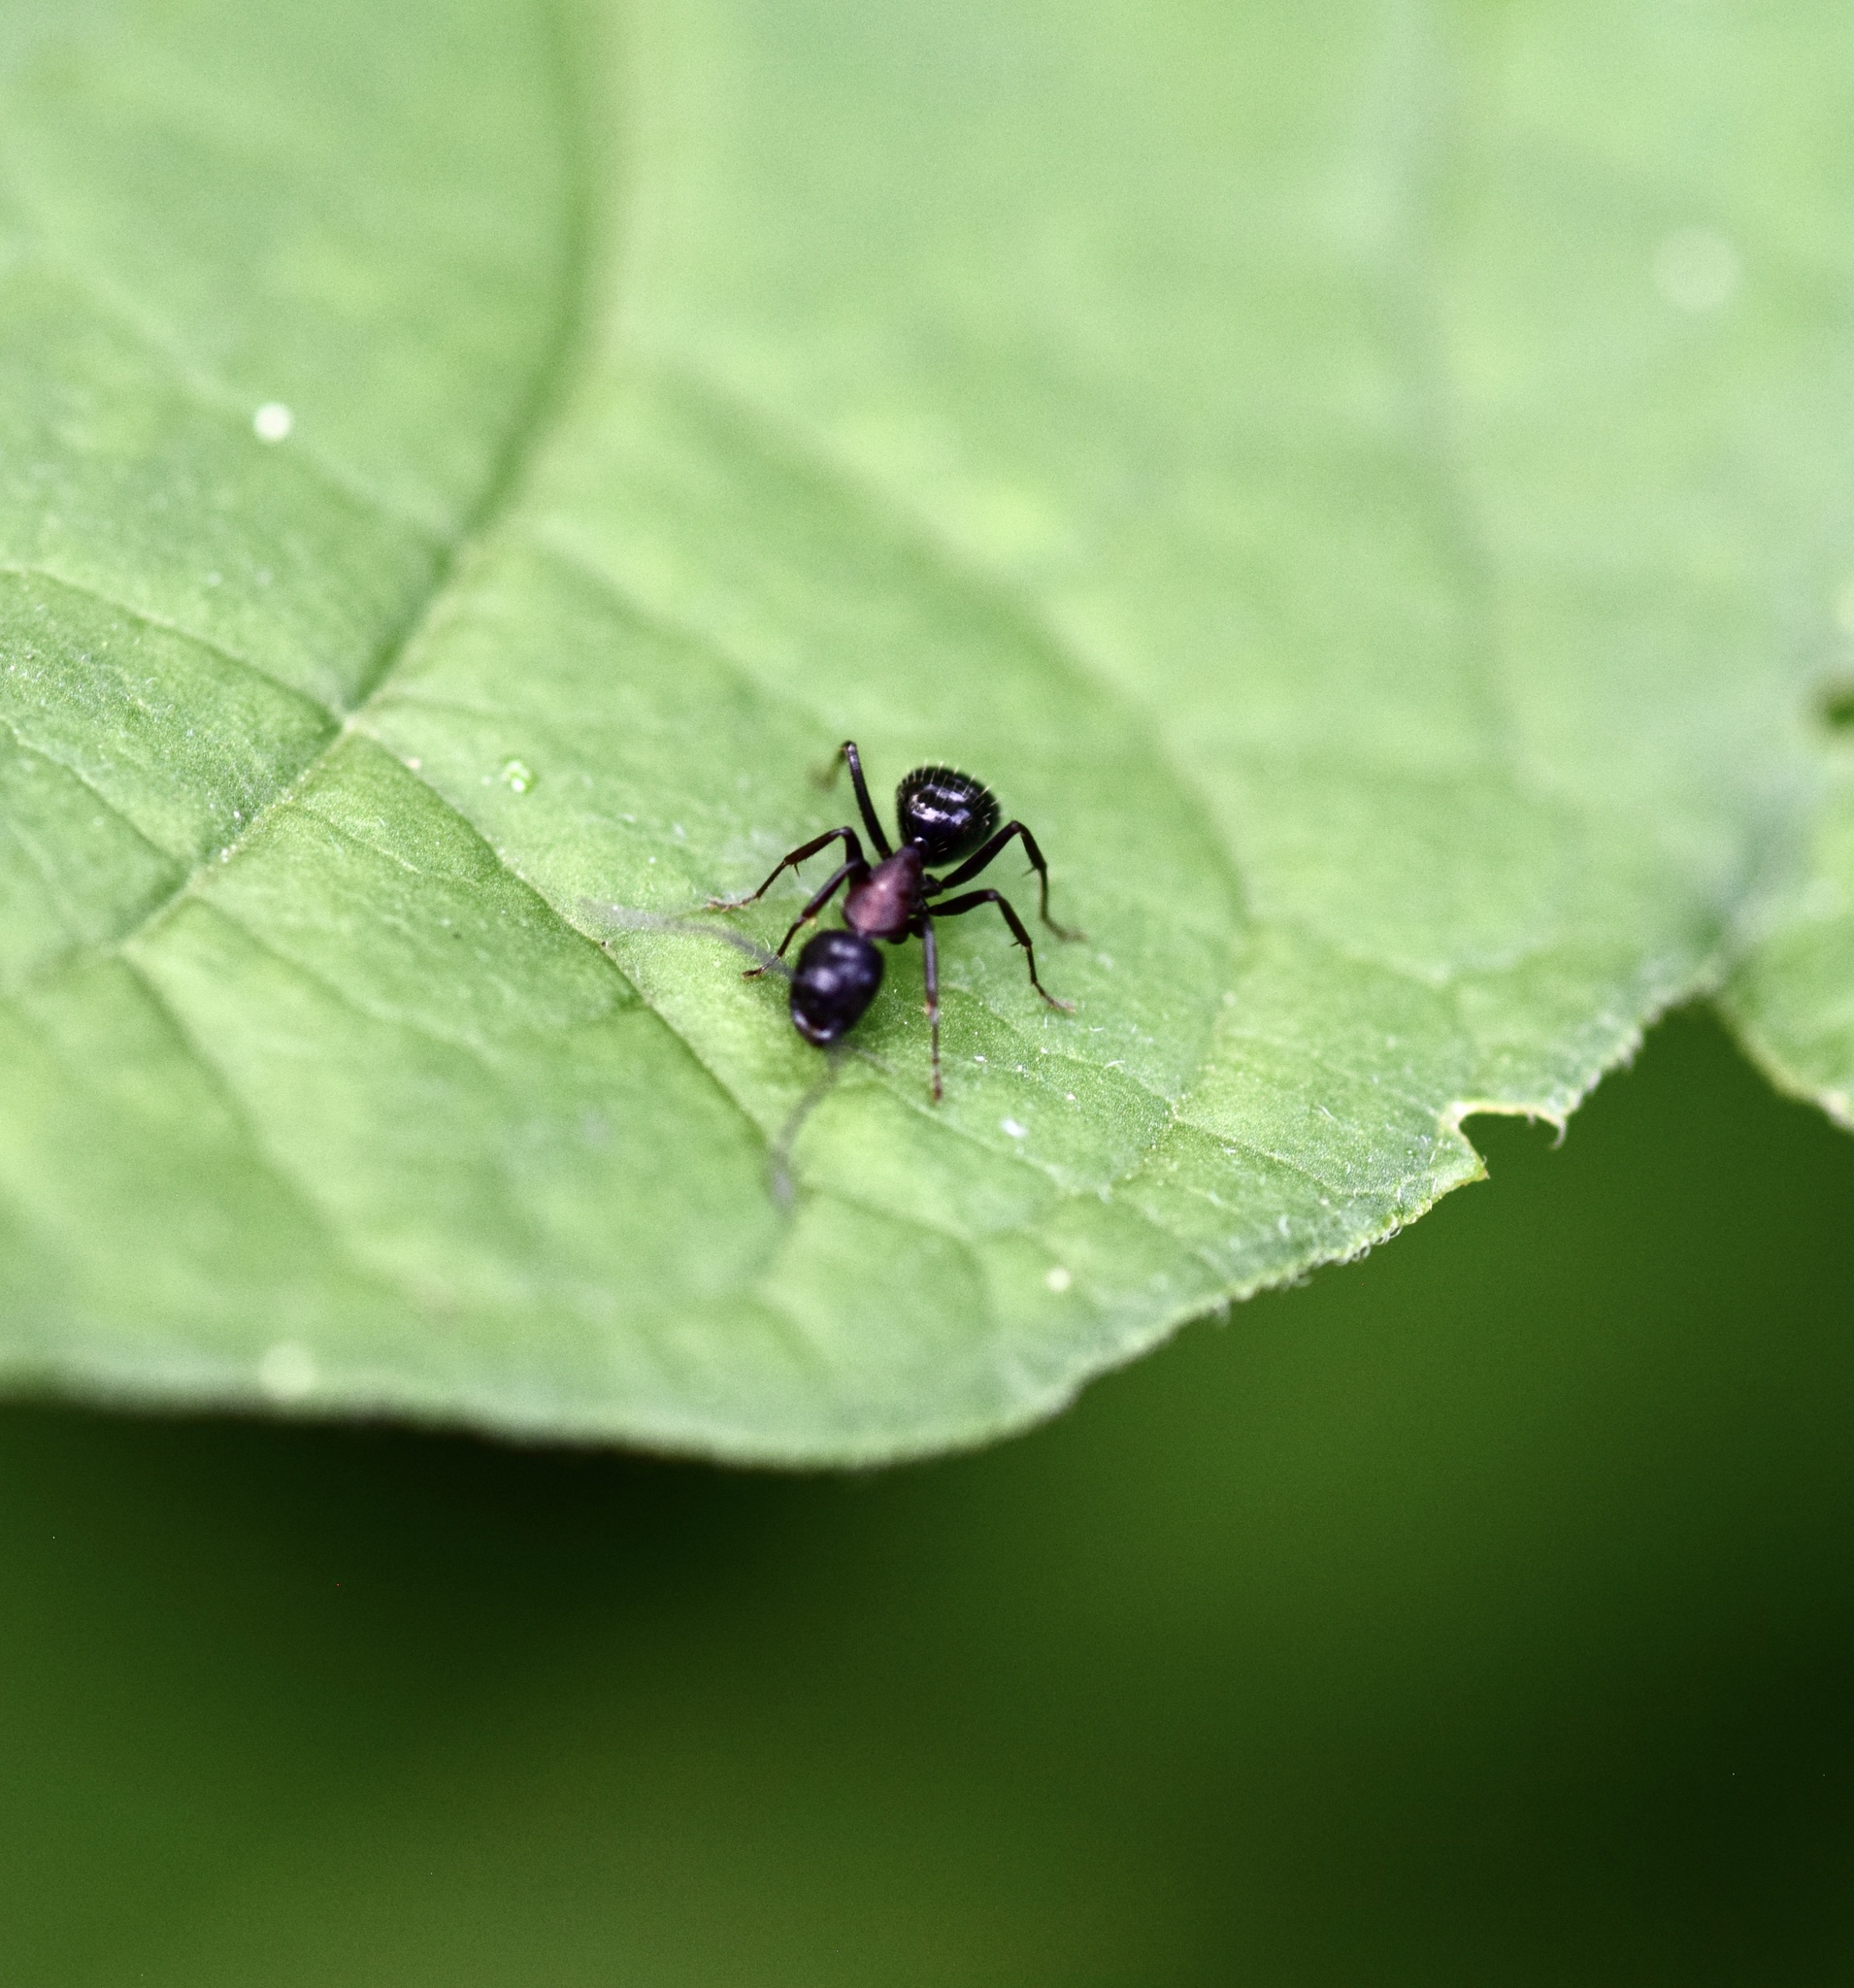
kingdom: Animalia
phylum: Arthropoda
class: Insecta
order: Hymenoptera
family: Formicidae
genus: Camponotus
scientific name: Camponotus novaeboracensis
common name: New york carpenter ant
